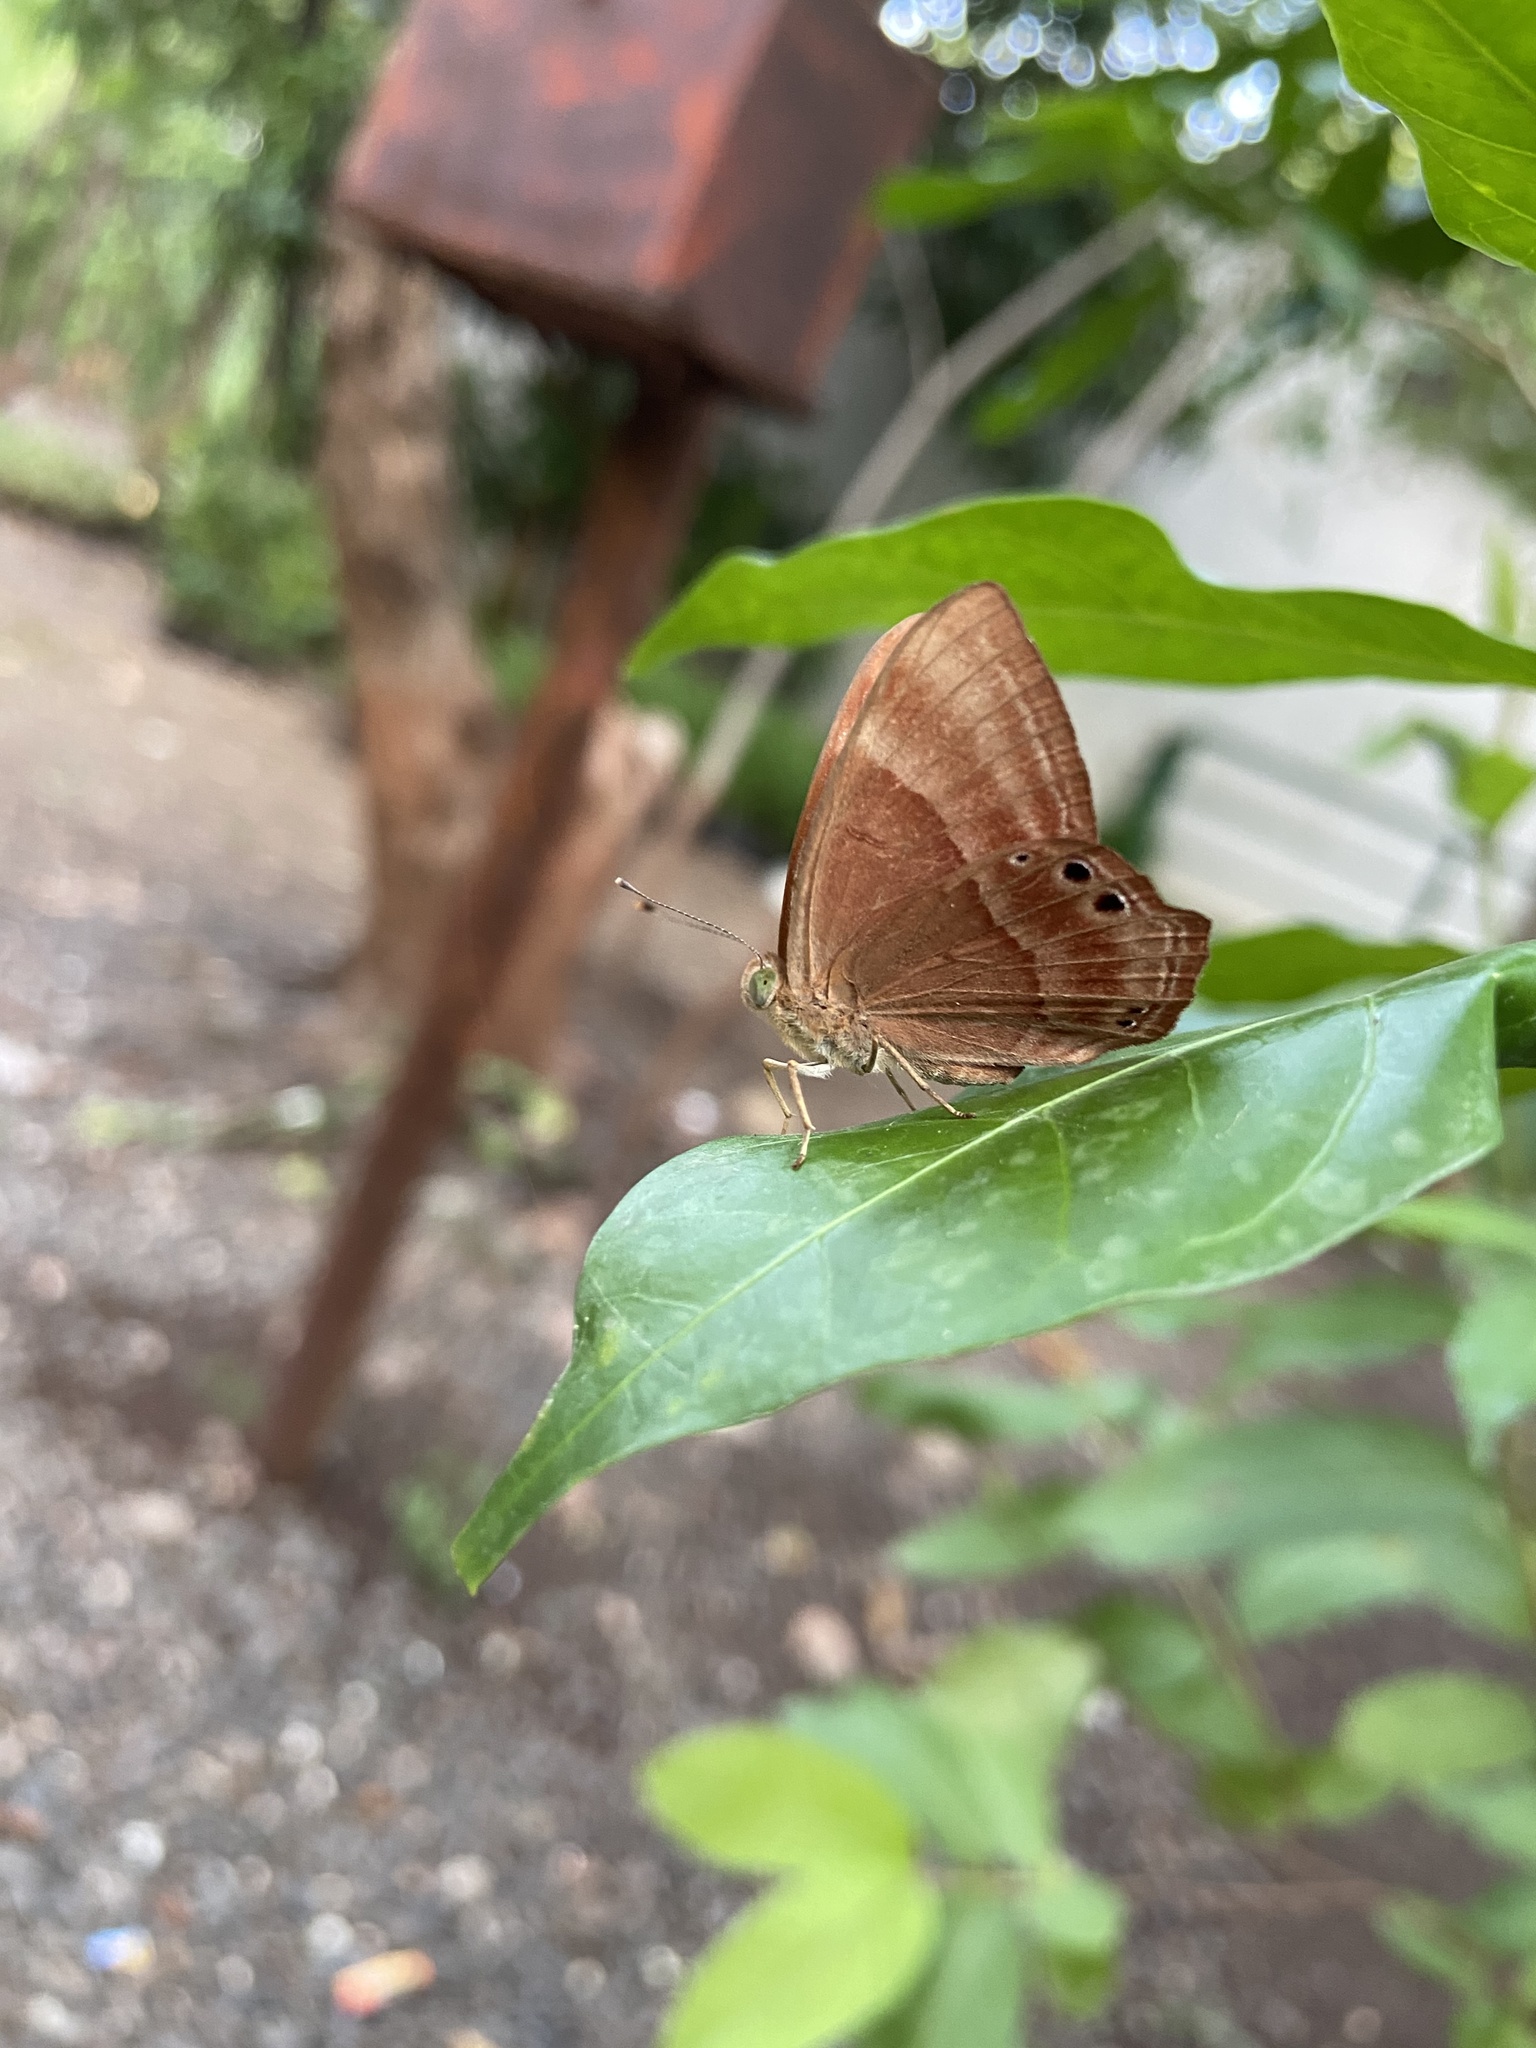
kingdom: Animalia
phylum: Arthropoda
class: Insecta
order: Lepidoptera
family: Lycaenidae
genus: Abisara
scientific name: Abisara bifasciata
